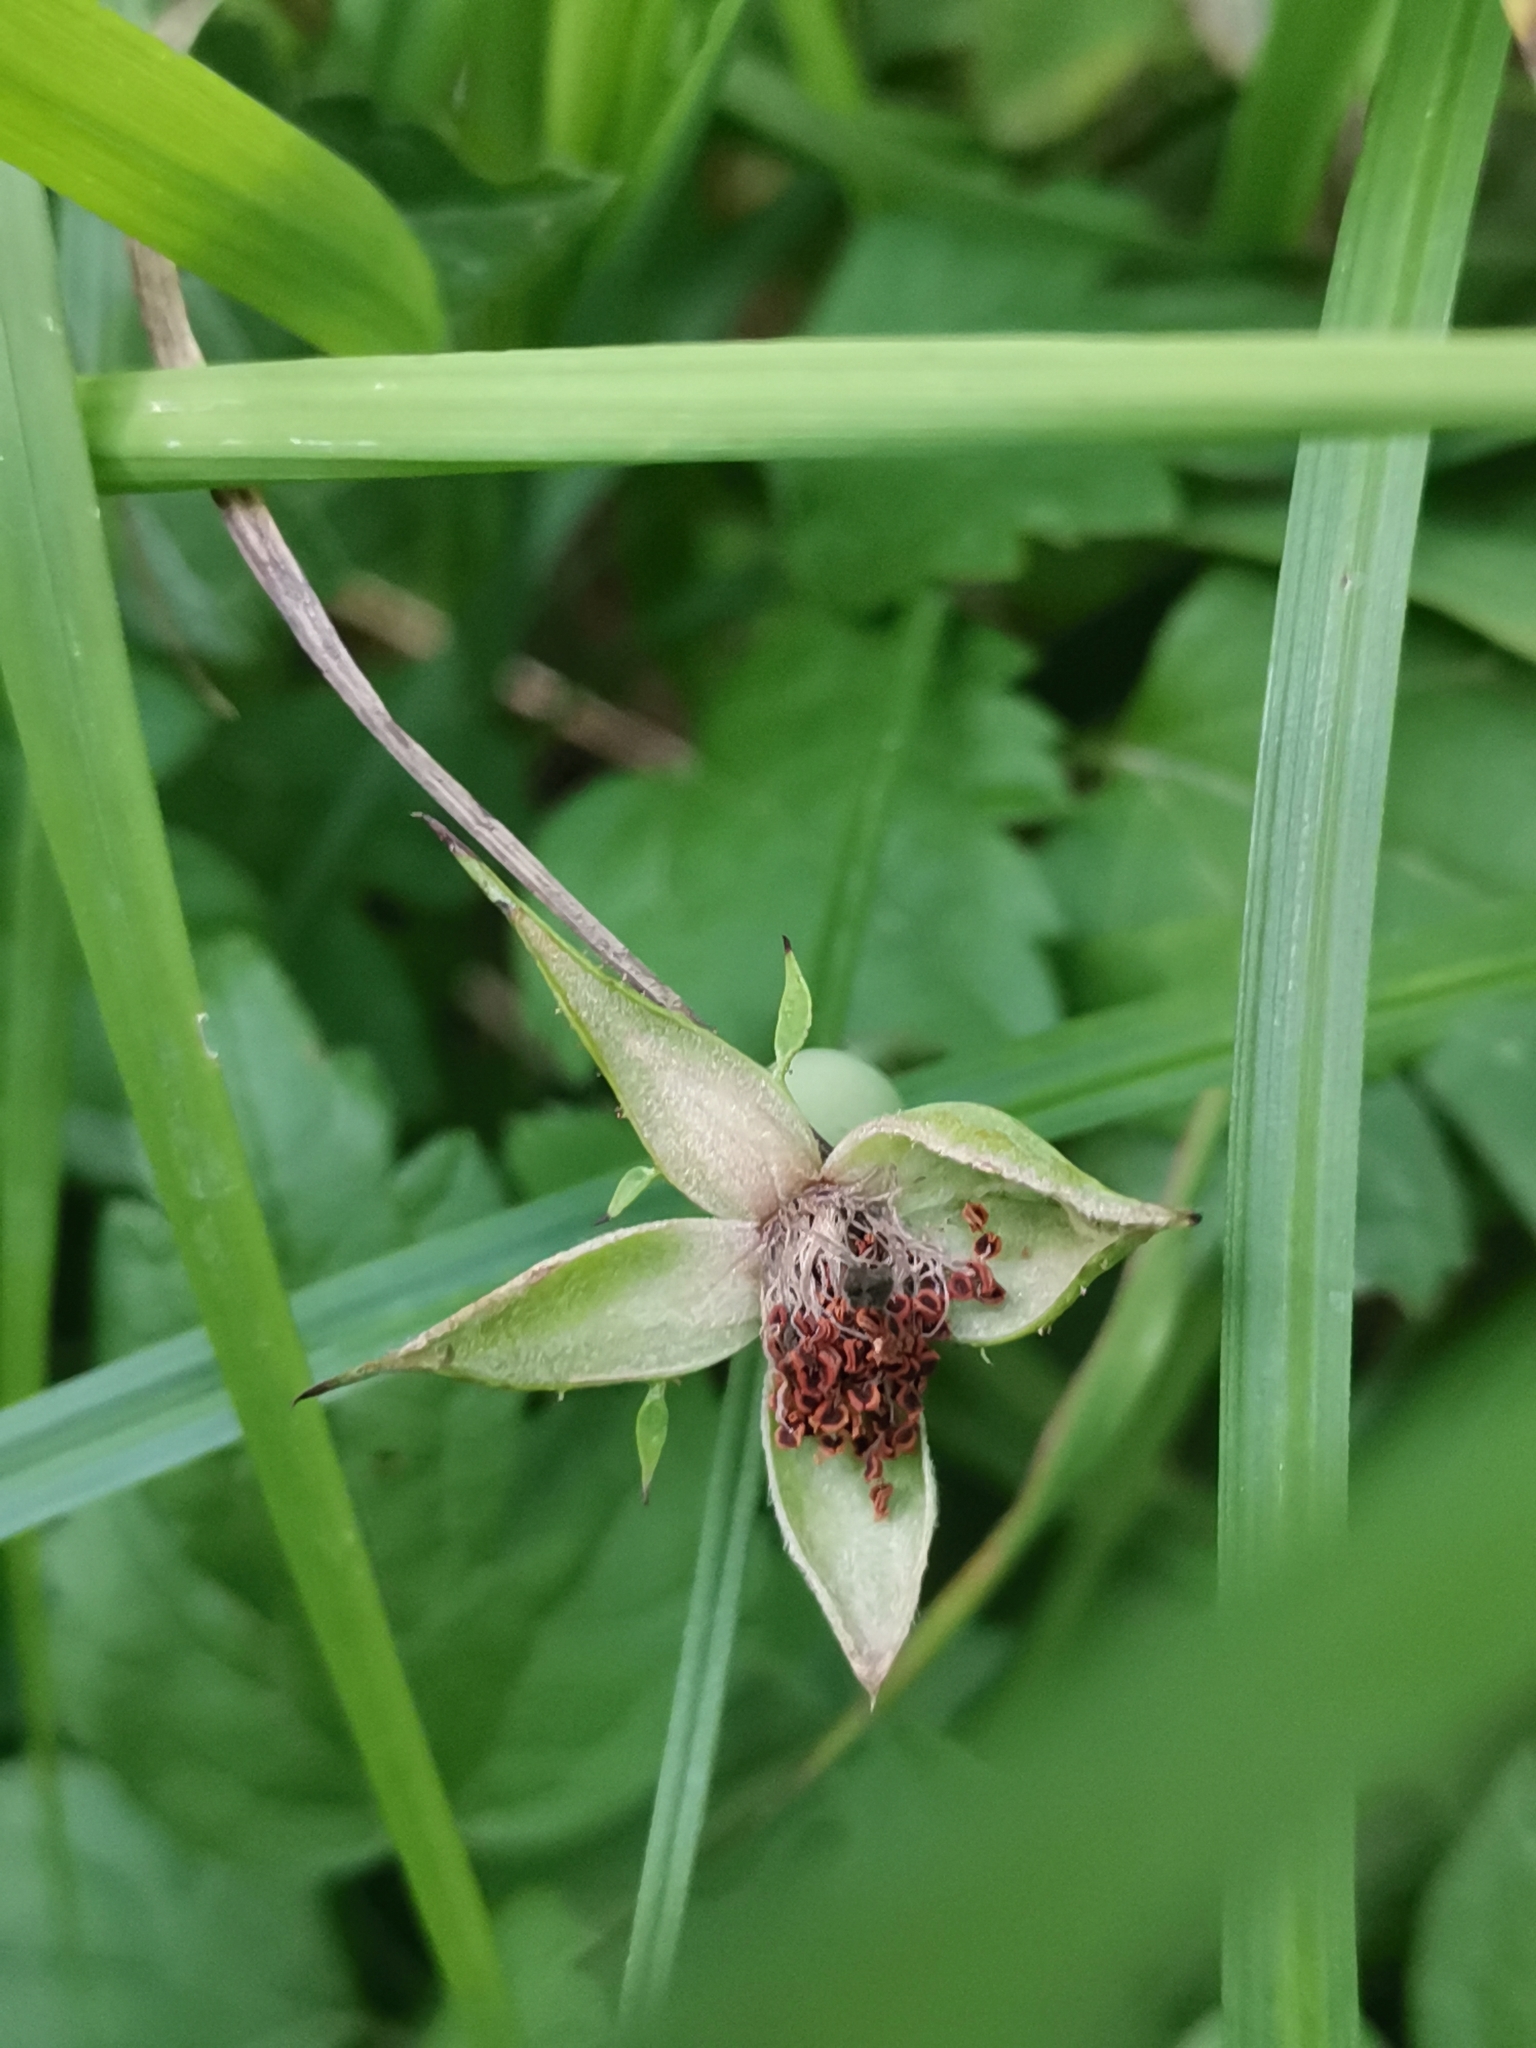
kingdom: Plantae
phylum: Tracheophyta
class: Magnoliopsida
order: Rosales
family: Rosaceae
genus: Rosa
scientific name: Rosa arvensis
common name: Field rose
